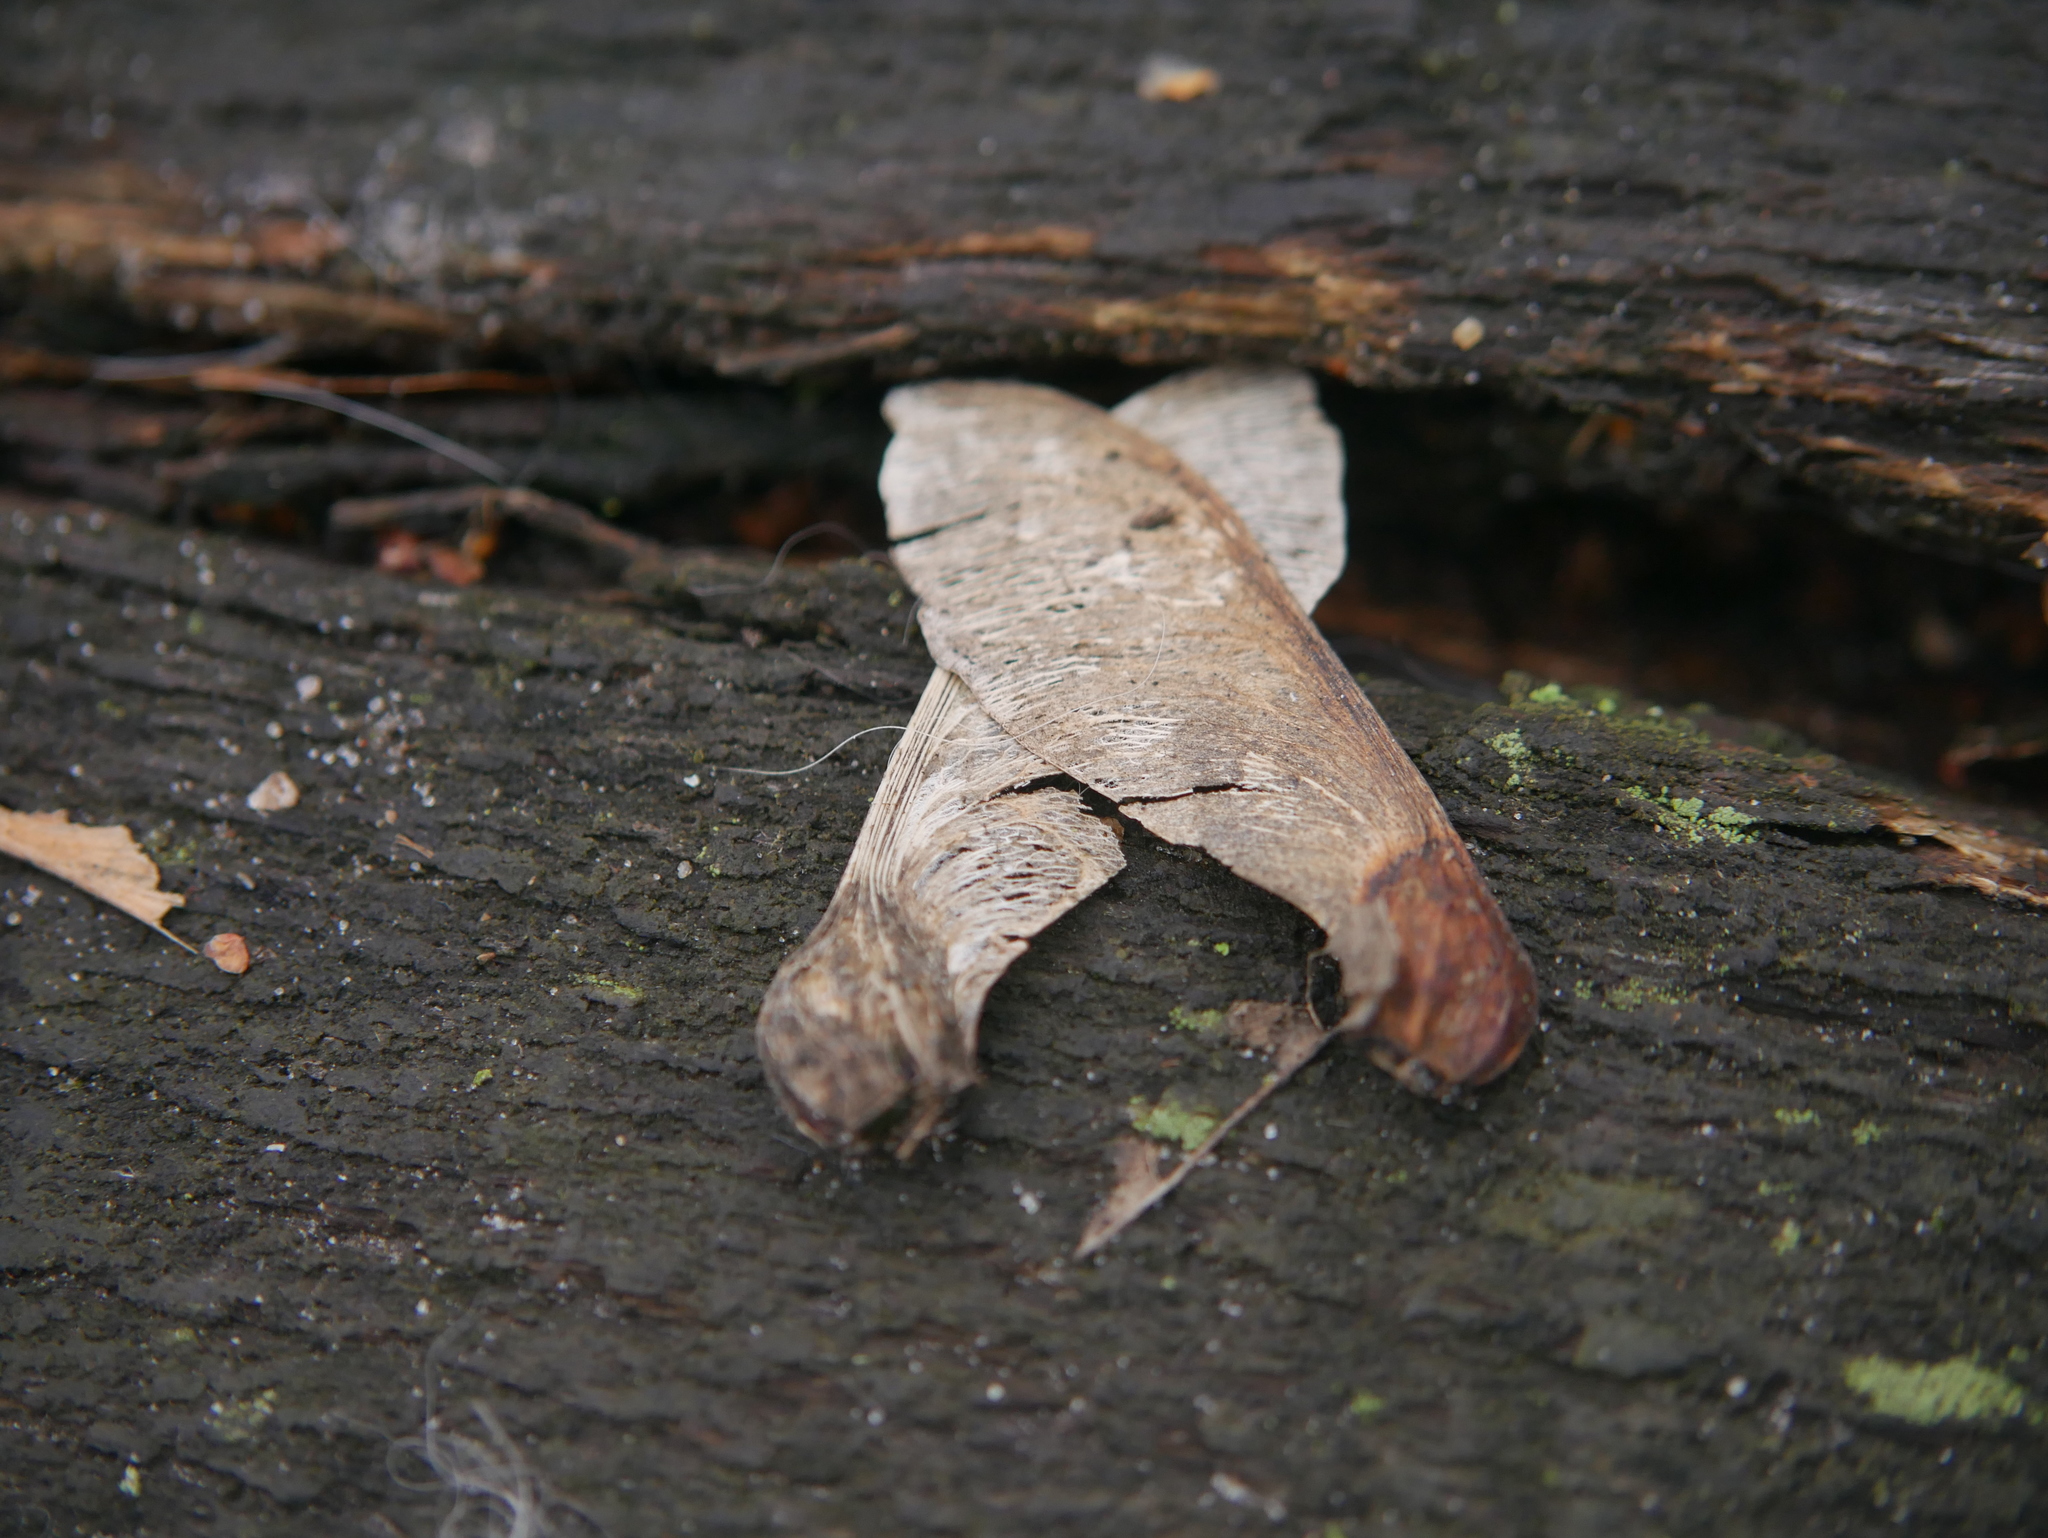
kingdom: Plantae
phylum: Tracheophyta
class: Magnoliopsida
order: Sapindales
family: Sapindaceae
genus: Acer
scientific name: Acer
